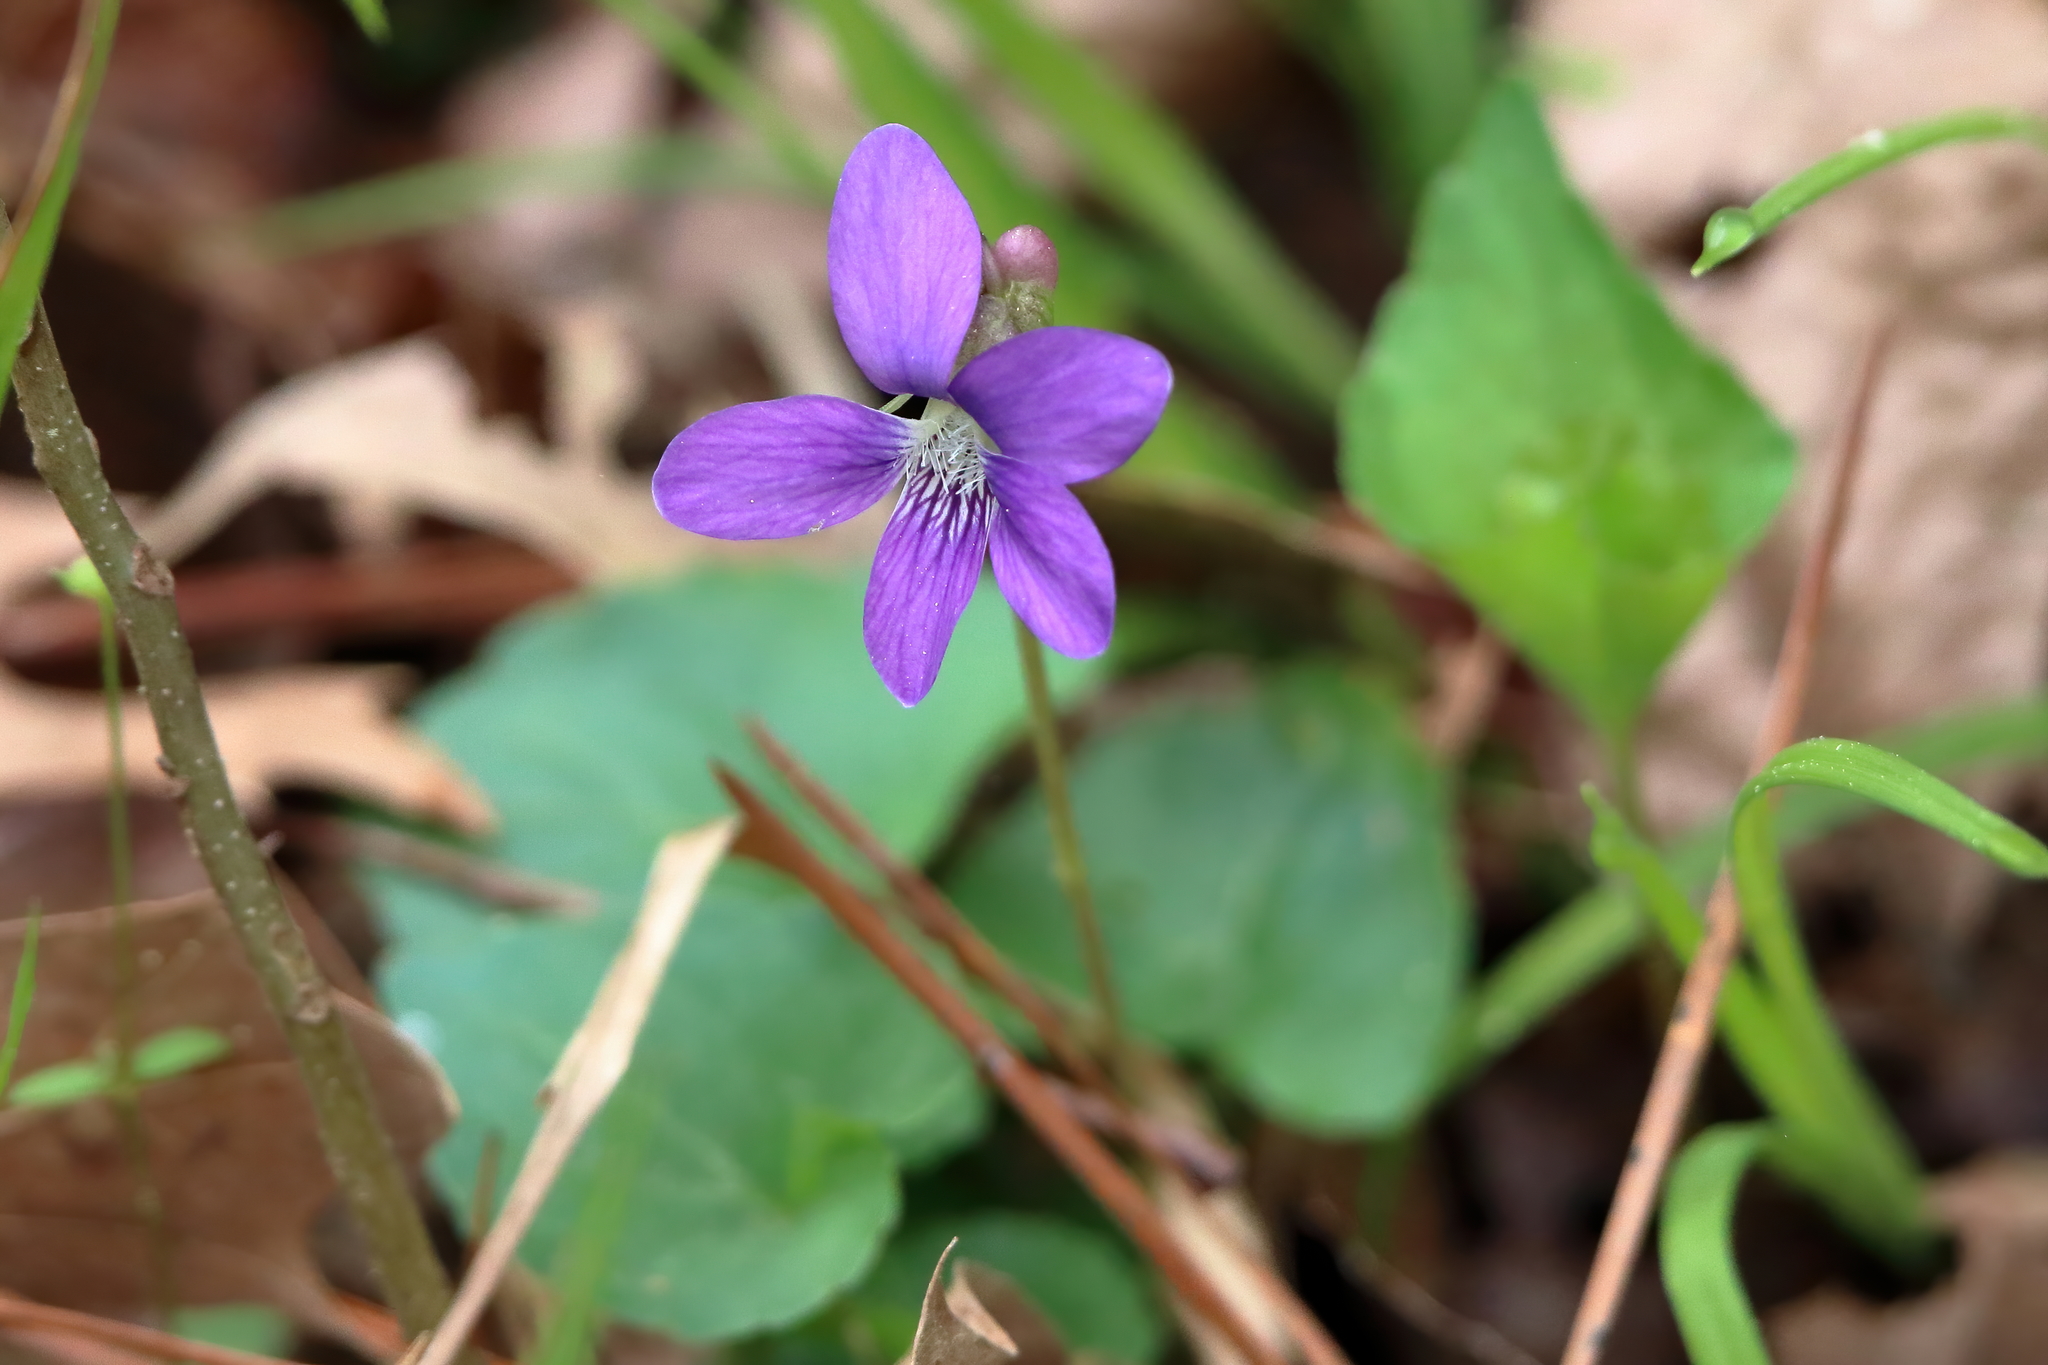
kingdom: Plantae
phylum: Tracheophyta
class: Magnoliopsida
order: Malpighiales
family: Violaceae
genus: Viola
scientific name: Viola sagittata
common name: Arrowhead violet
